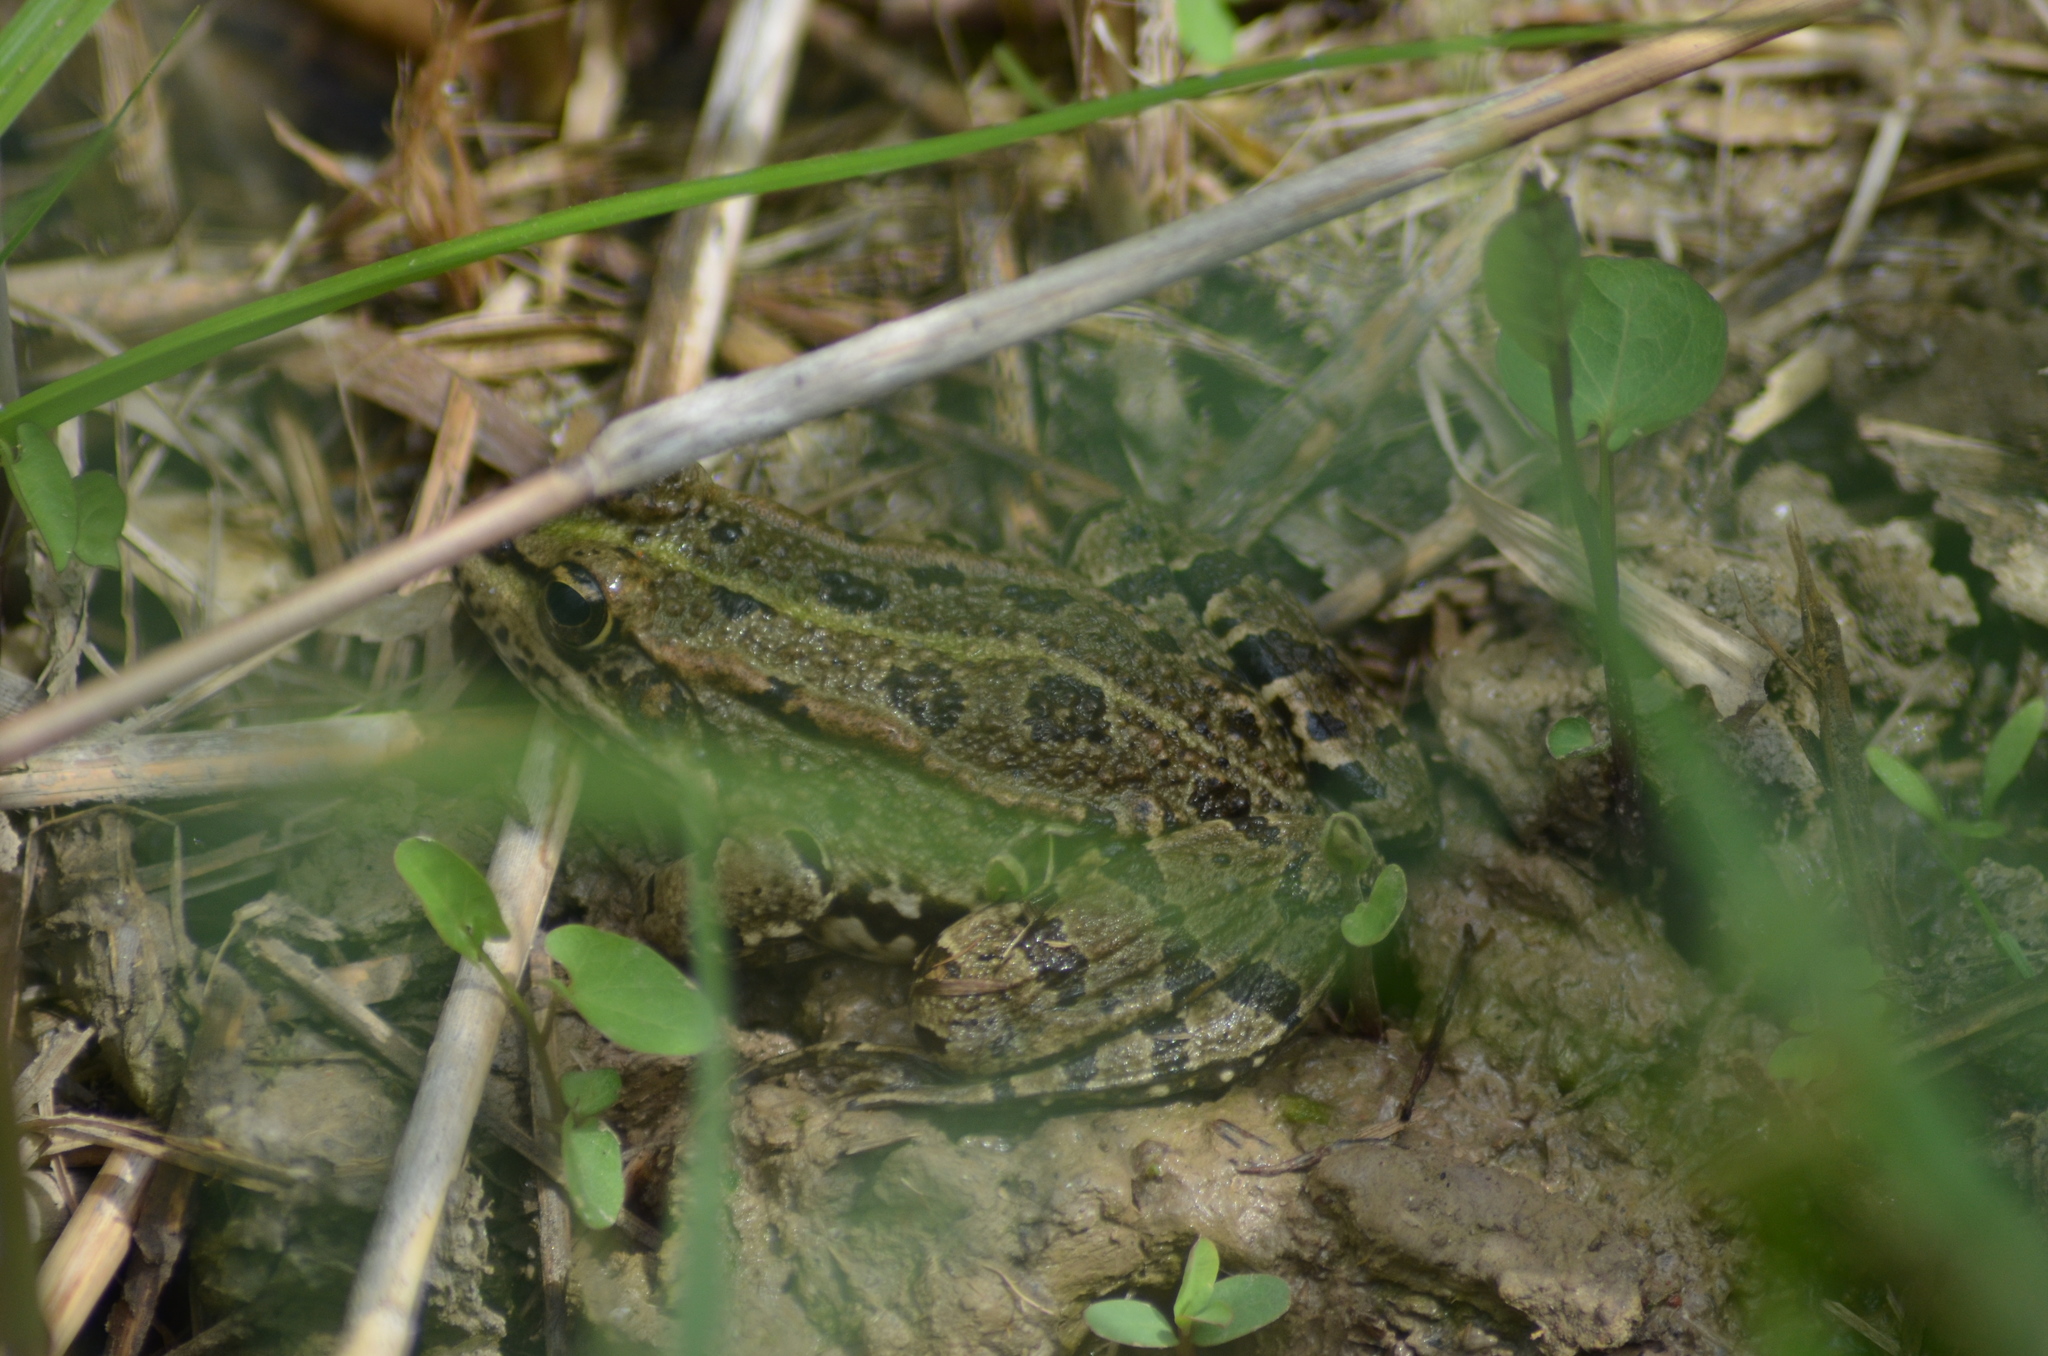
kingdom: Animalia
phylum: Chordata
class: Amphibia
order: Anura
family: Ranidae
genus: Pelophylax
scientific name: Pelophylax perezi
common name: Perez's frog
